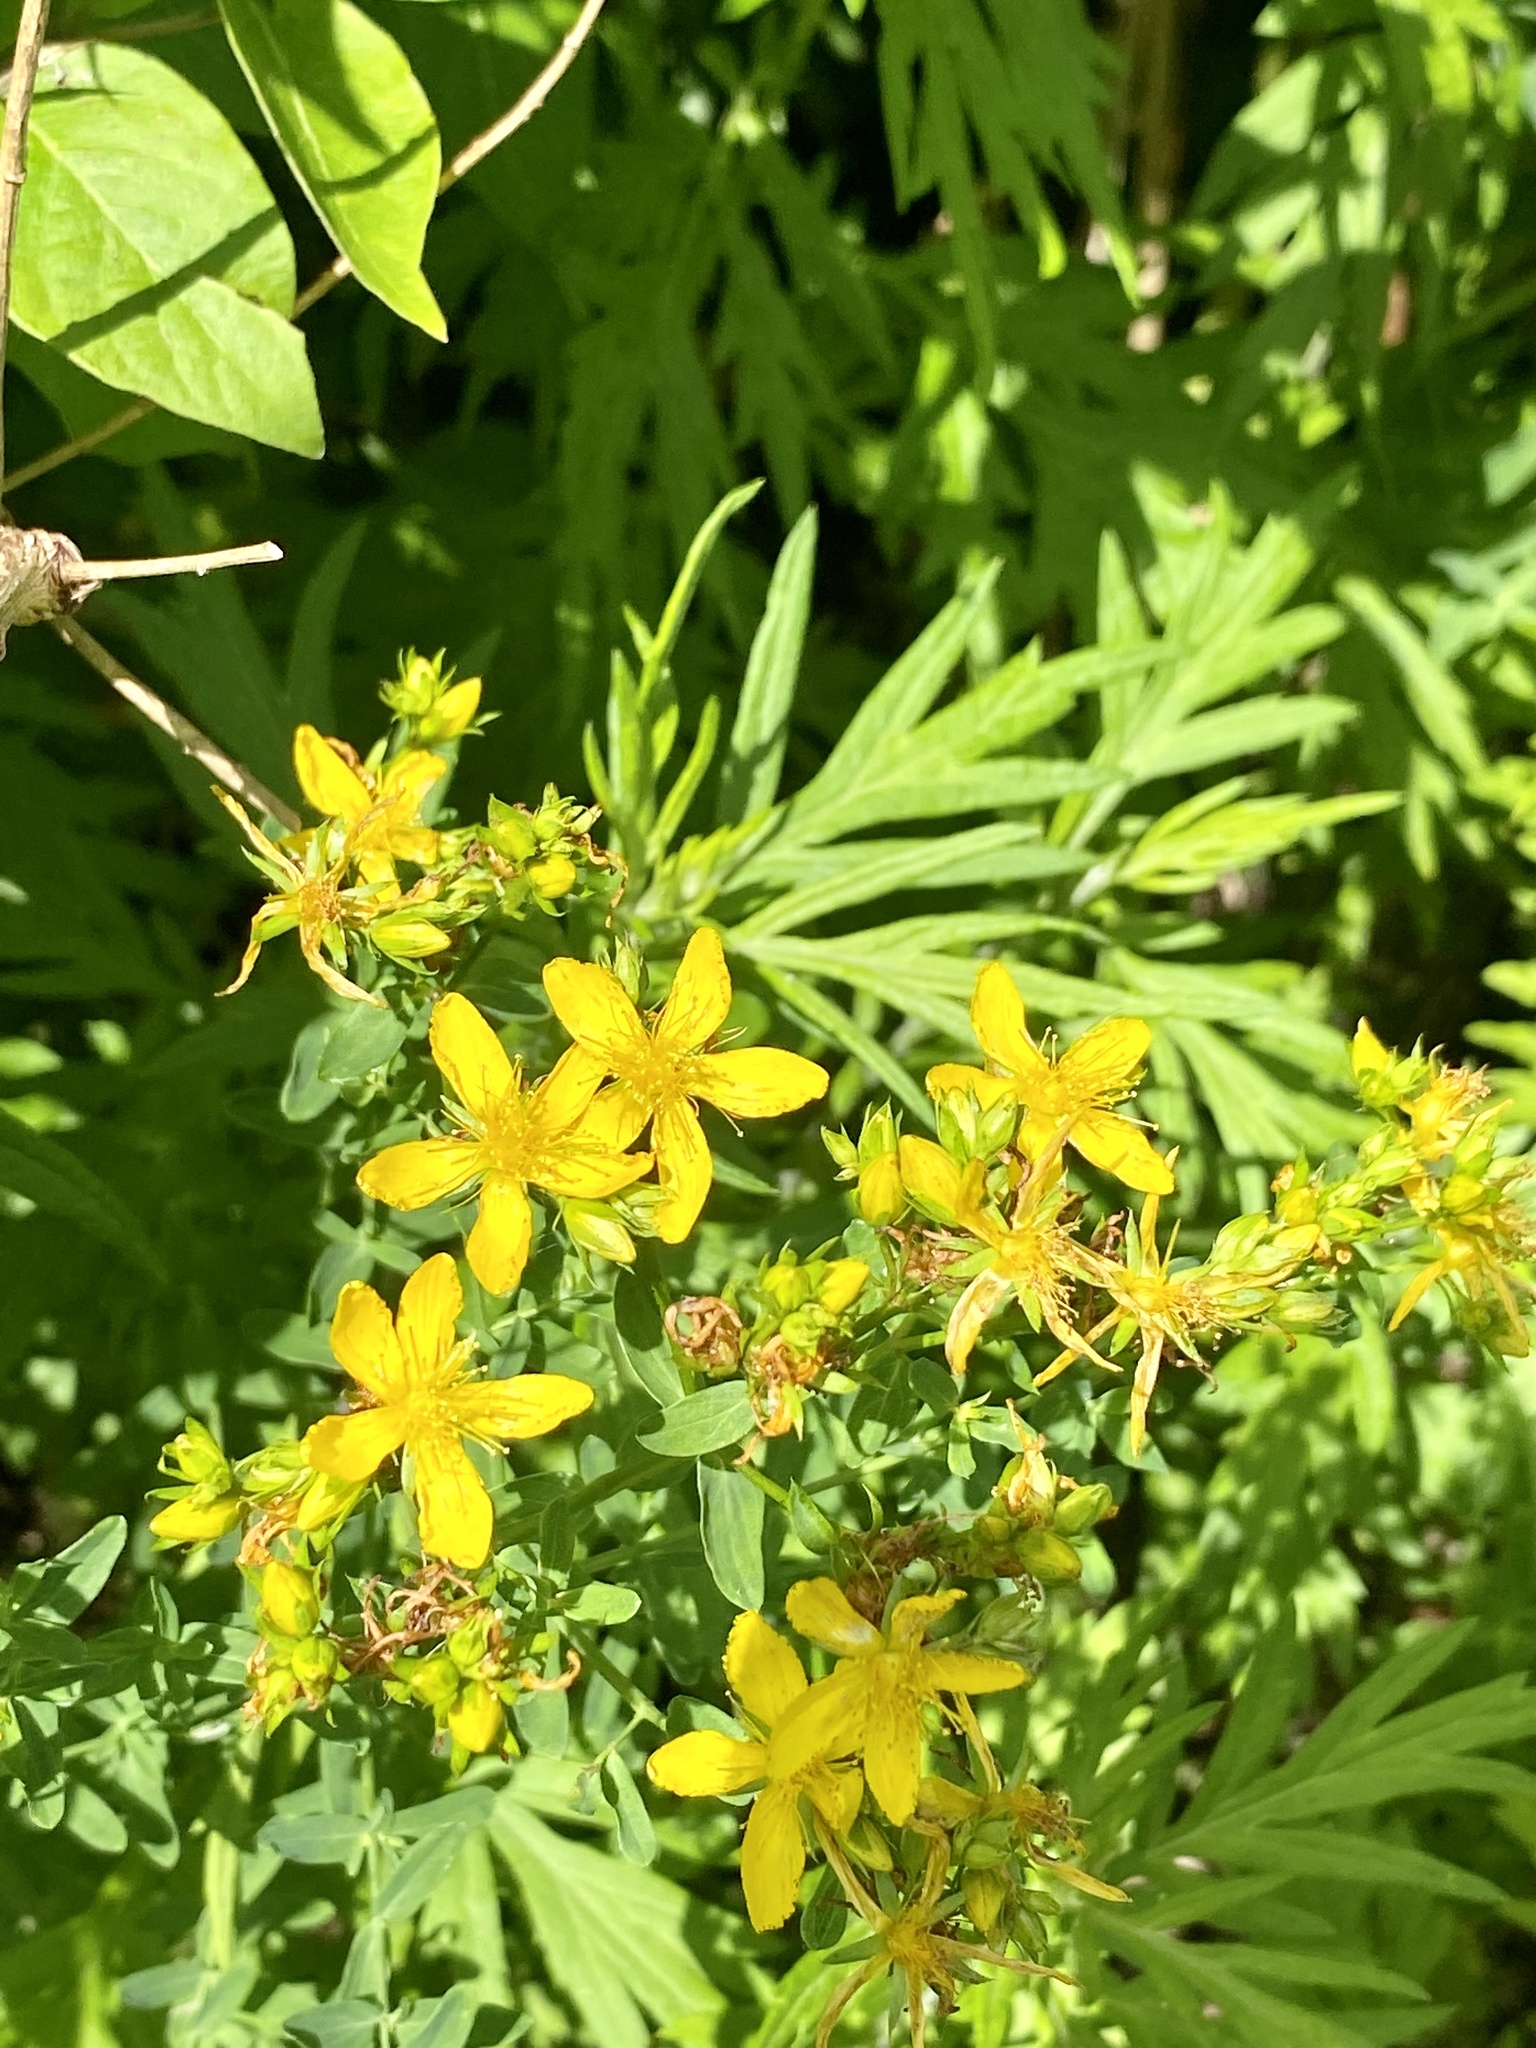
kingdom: Plantae
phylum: Tracheophyta
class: Magnoliopsida
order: Malpighiales
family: Hypericaceae
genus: Hypericum
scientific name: Hypericum perforatum
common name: Common st. johnswort
